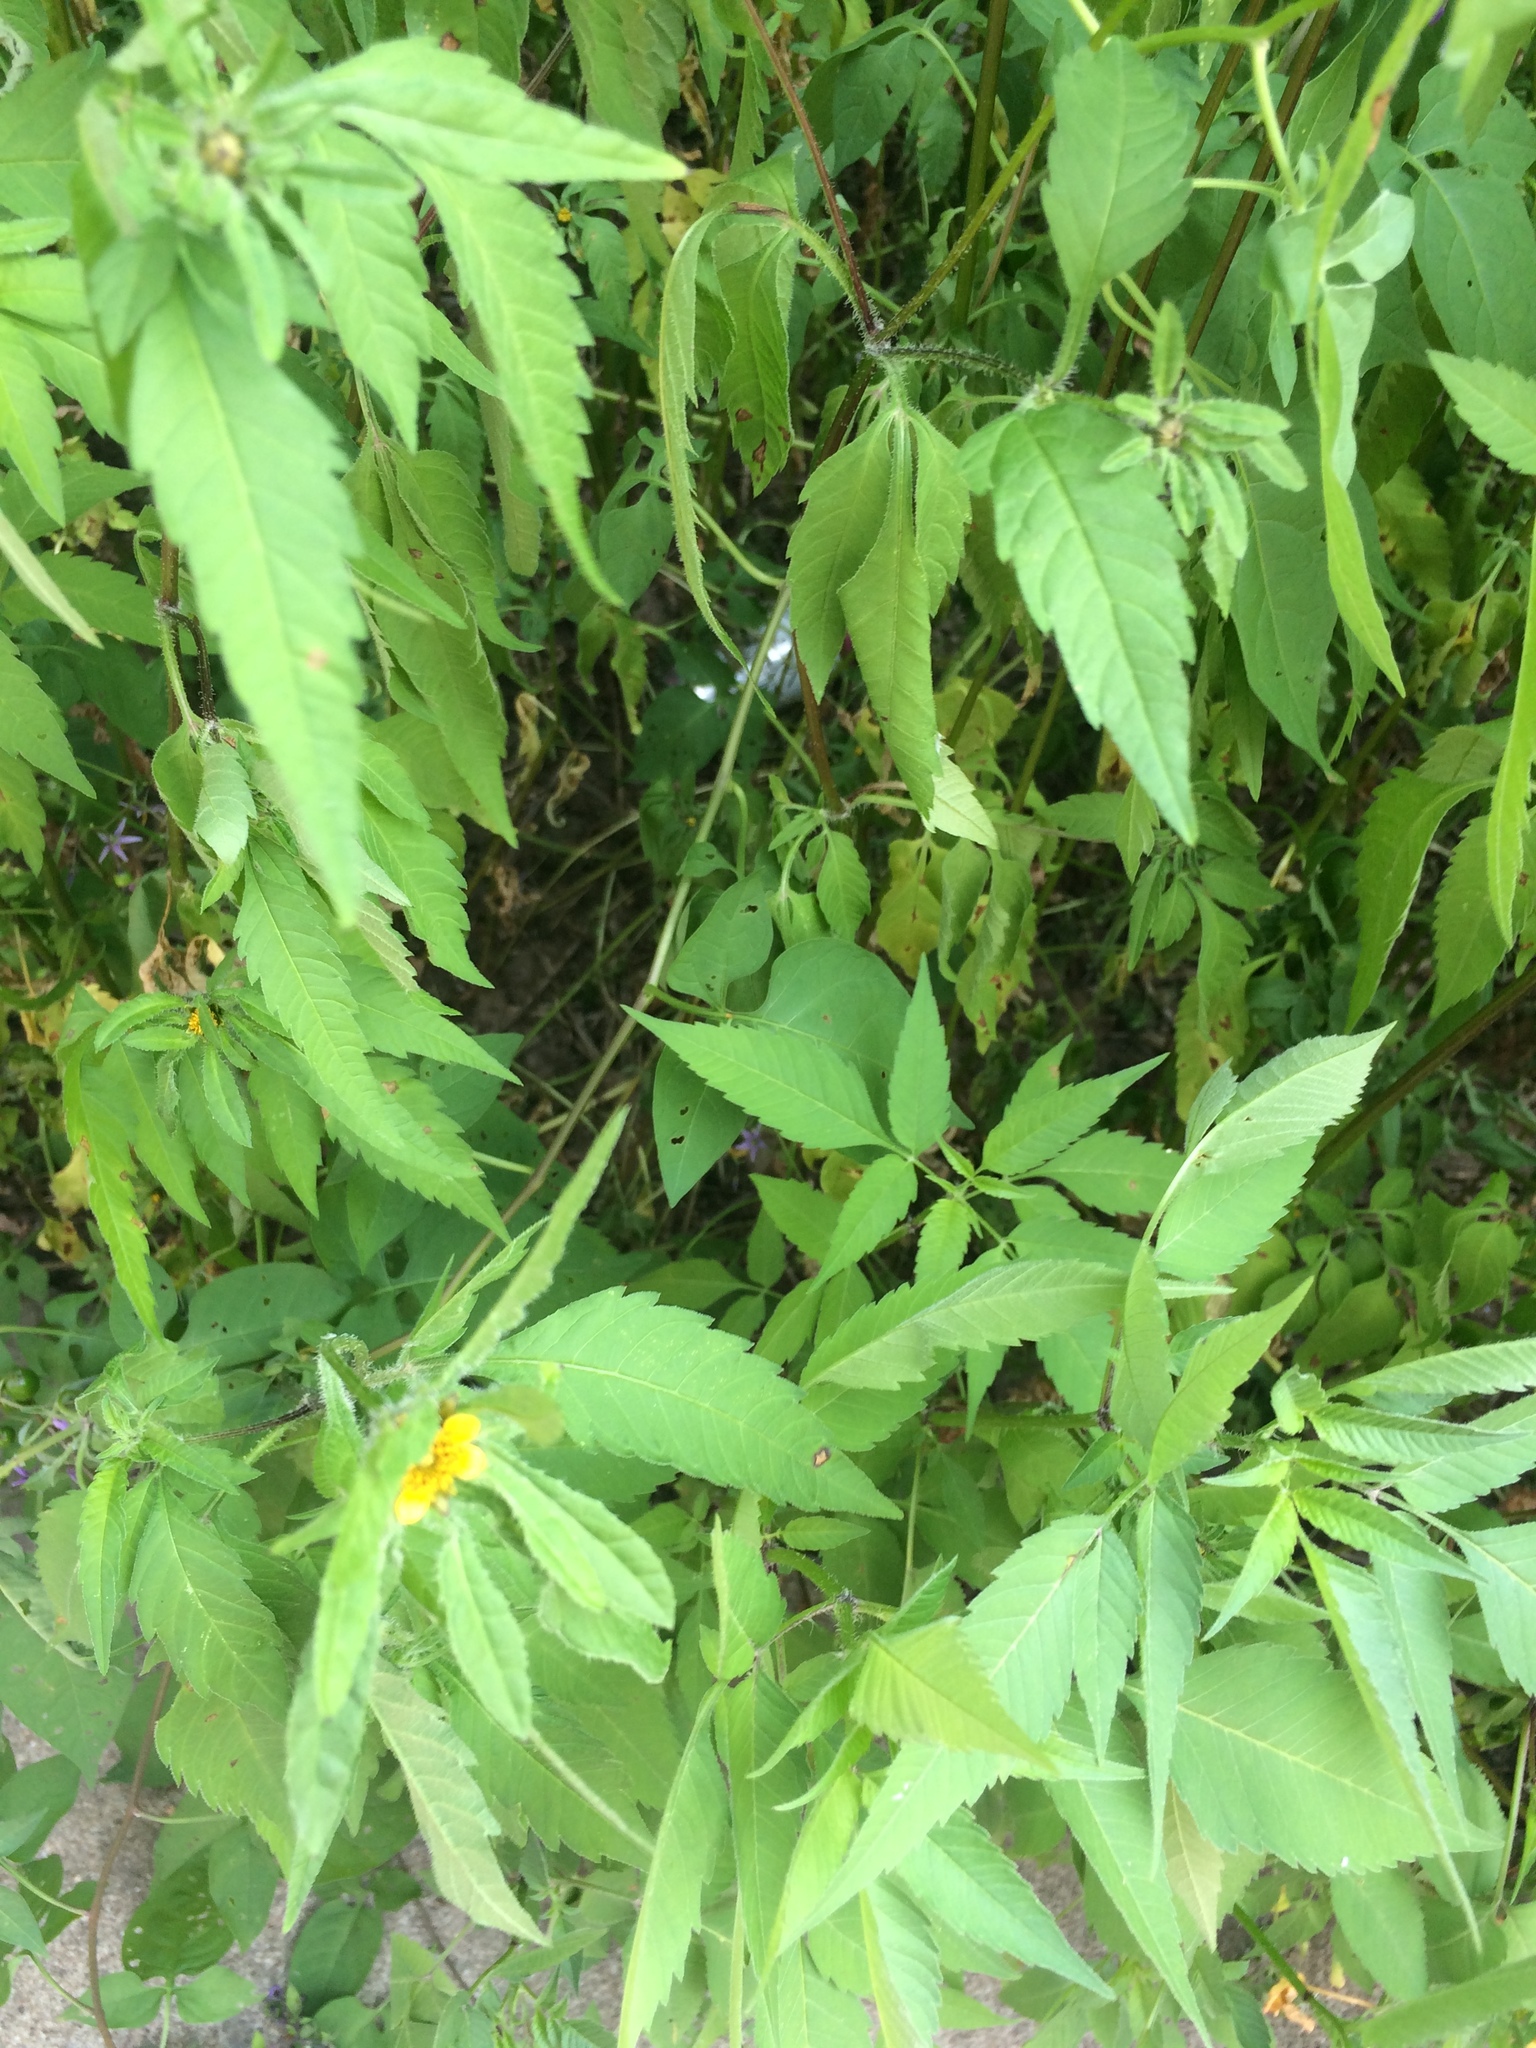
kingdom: Plantae
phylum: Tracheophyta
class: Magnoliopsida
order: Asterales
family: Asteraceae
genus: Bidens
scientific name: Bidens vulgata
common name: Tall beggarticks
